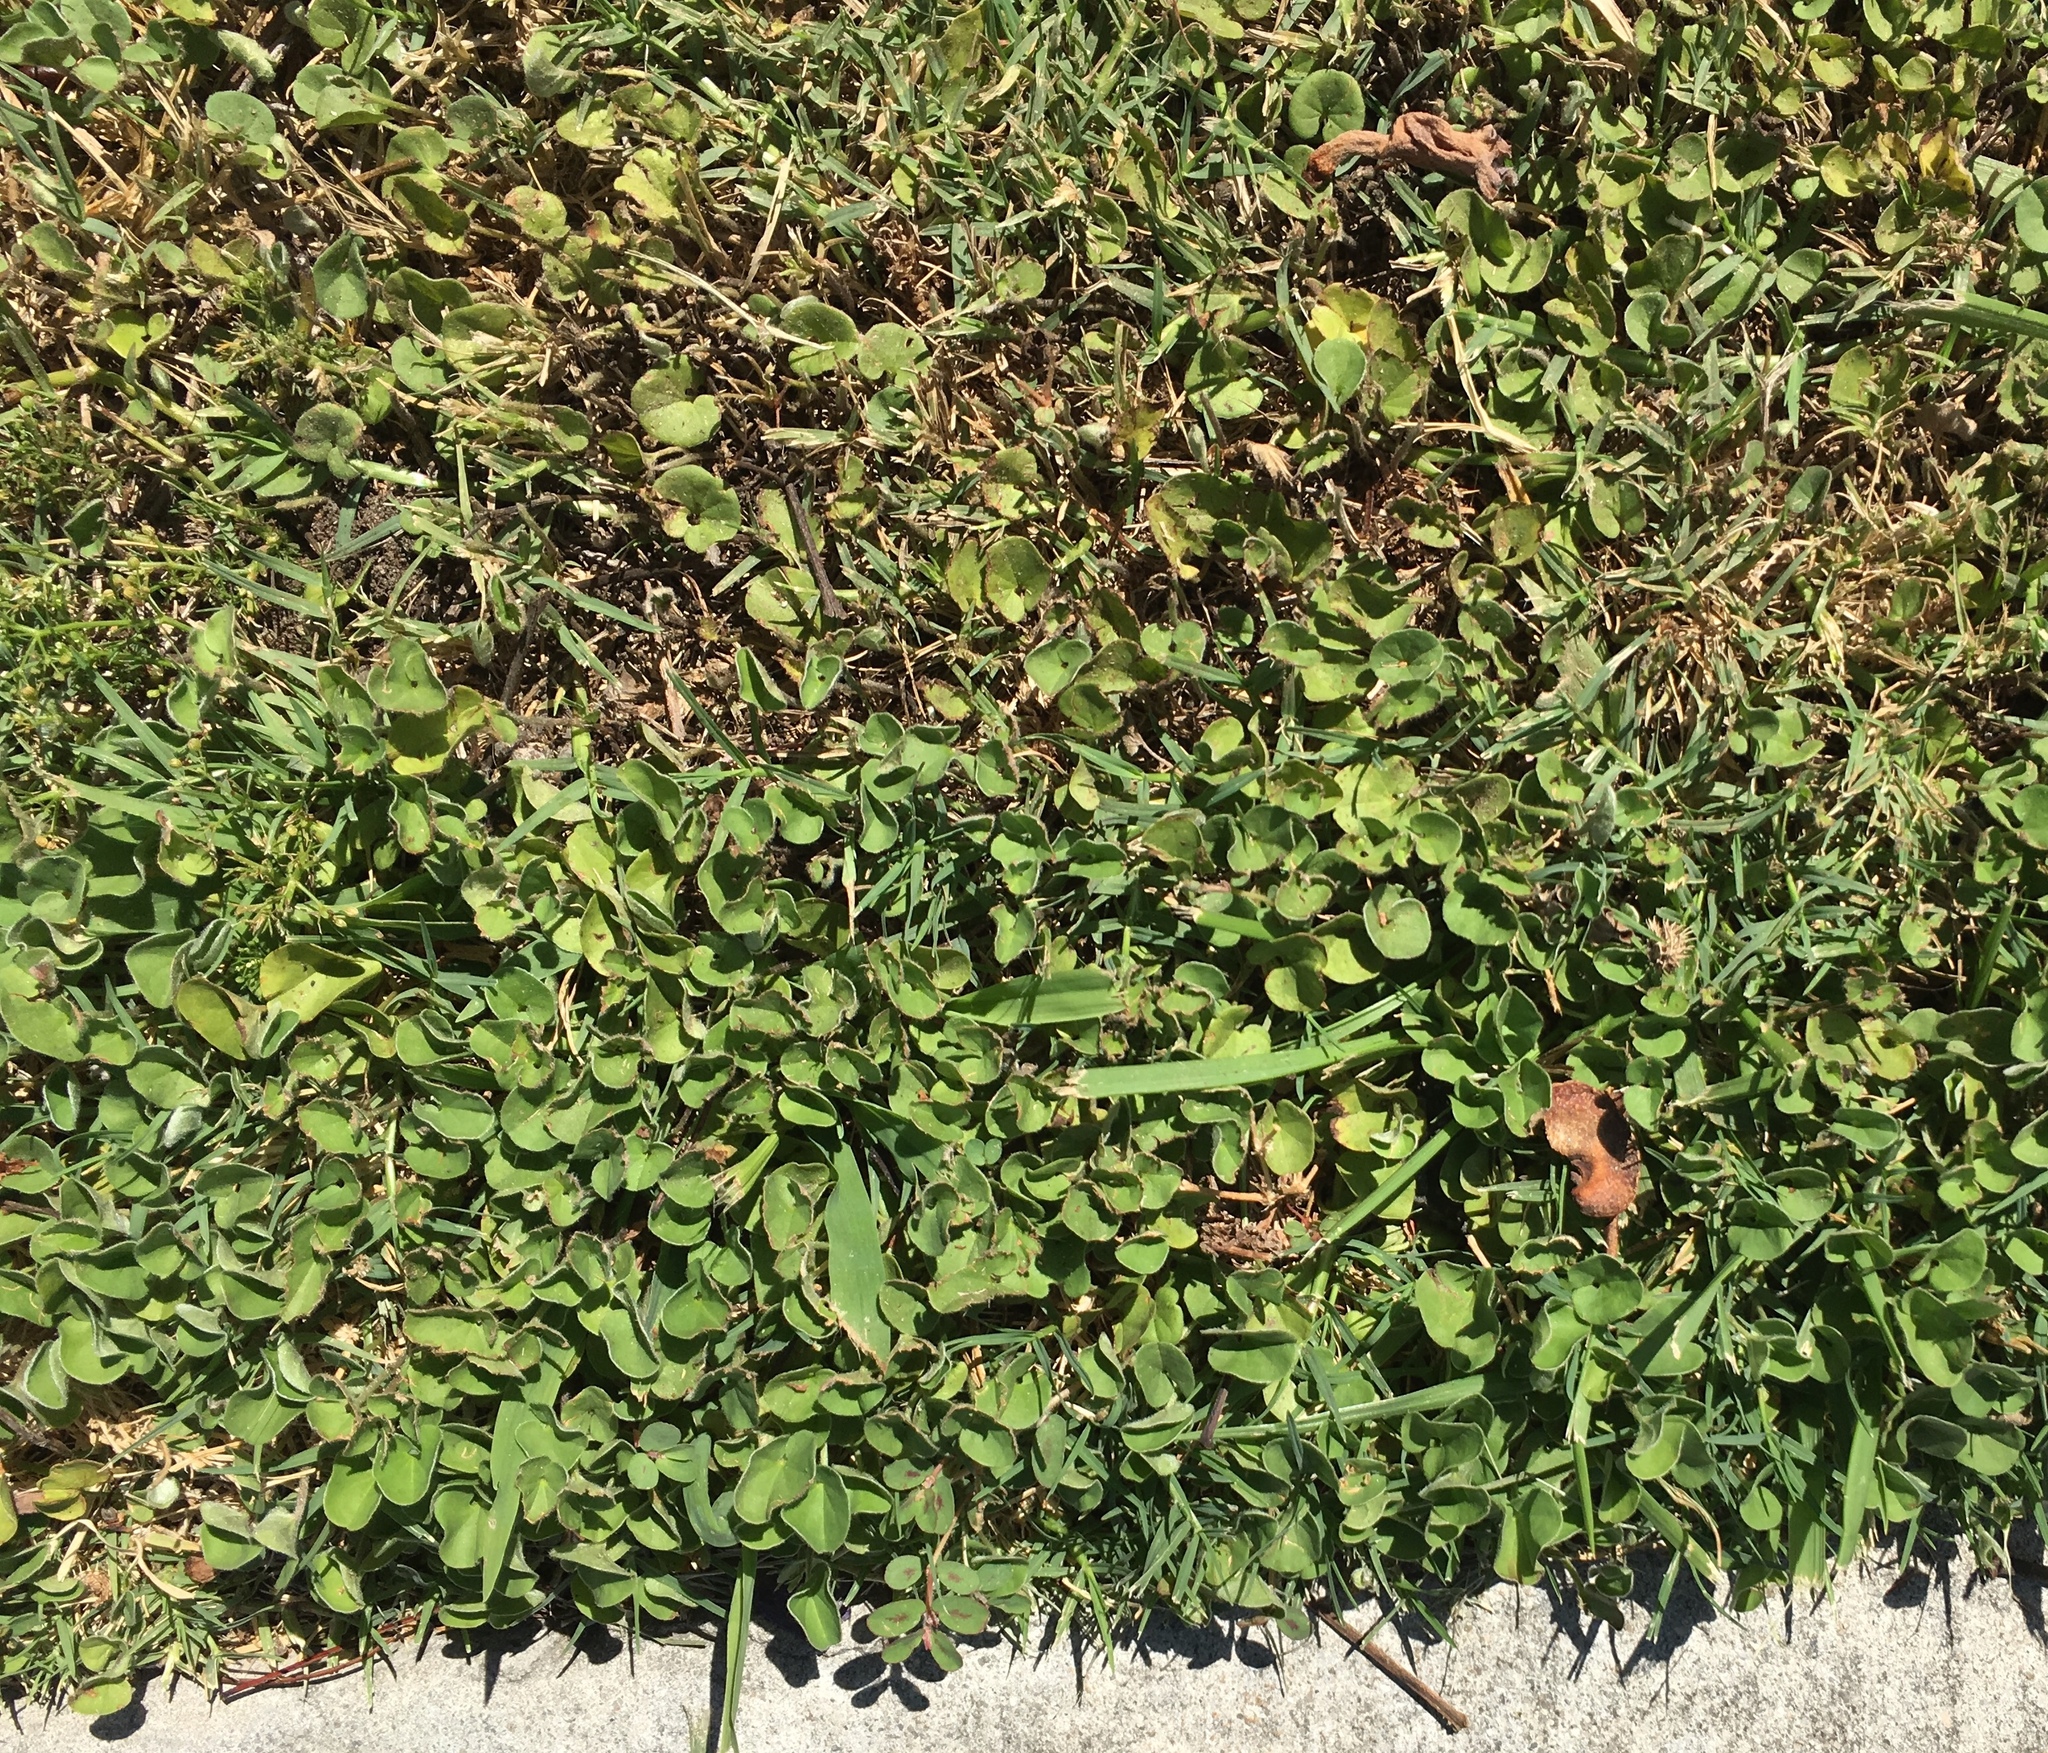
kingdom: Plantae
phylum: Tracheophyta
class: Magnoliopsida
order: Solanales
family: Convolvulaceae
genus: Dichondra
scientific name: Dichondra micrantha
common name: Kidneyweed
